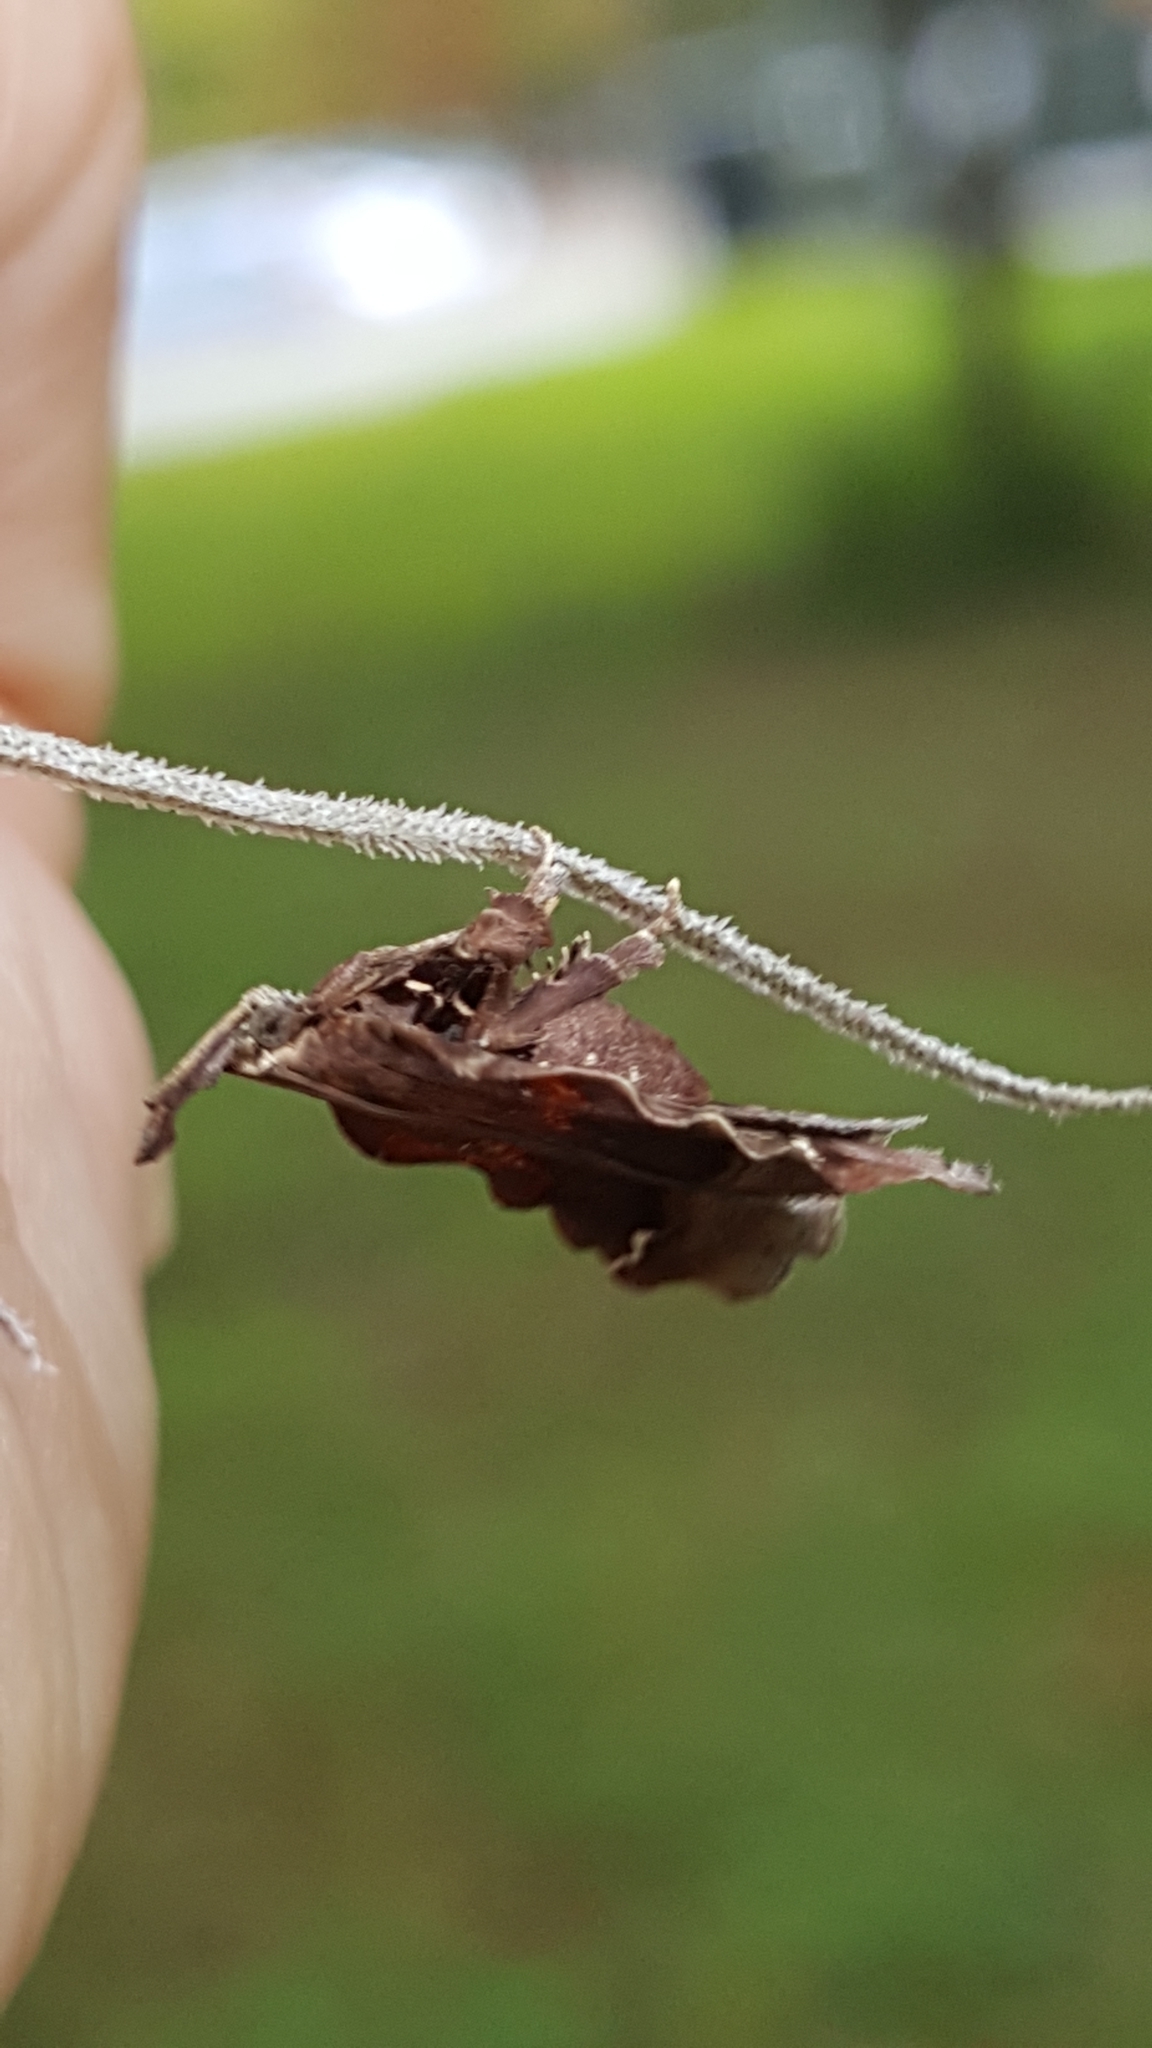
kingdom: Animalia
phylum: Arthropoda
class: Insecta
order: Lepidoptera
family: Pyralidae
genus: Clydonopteron
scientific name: Clydonopteron sacculana
